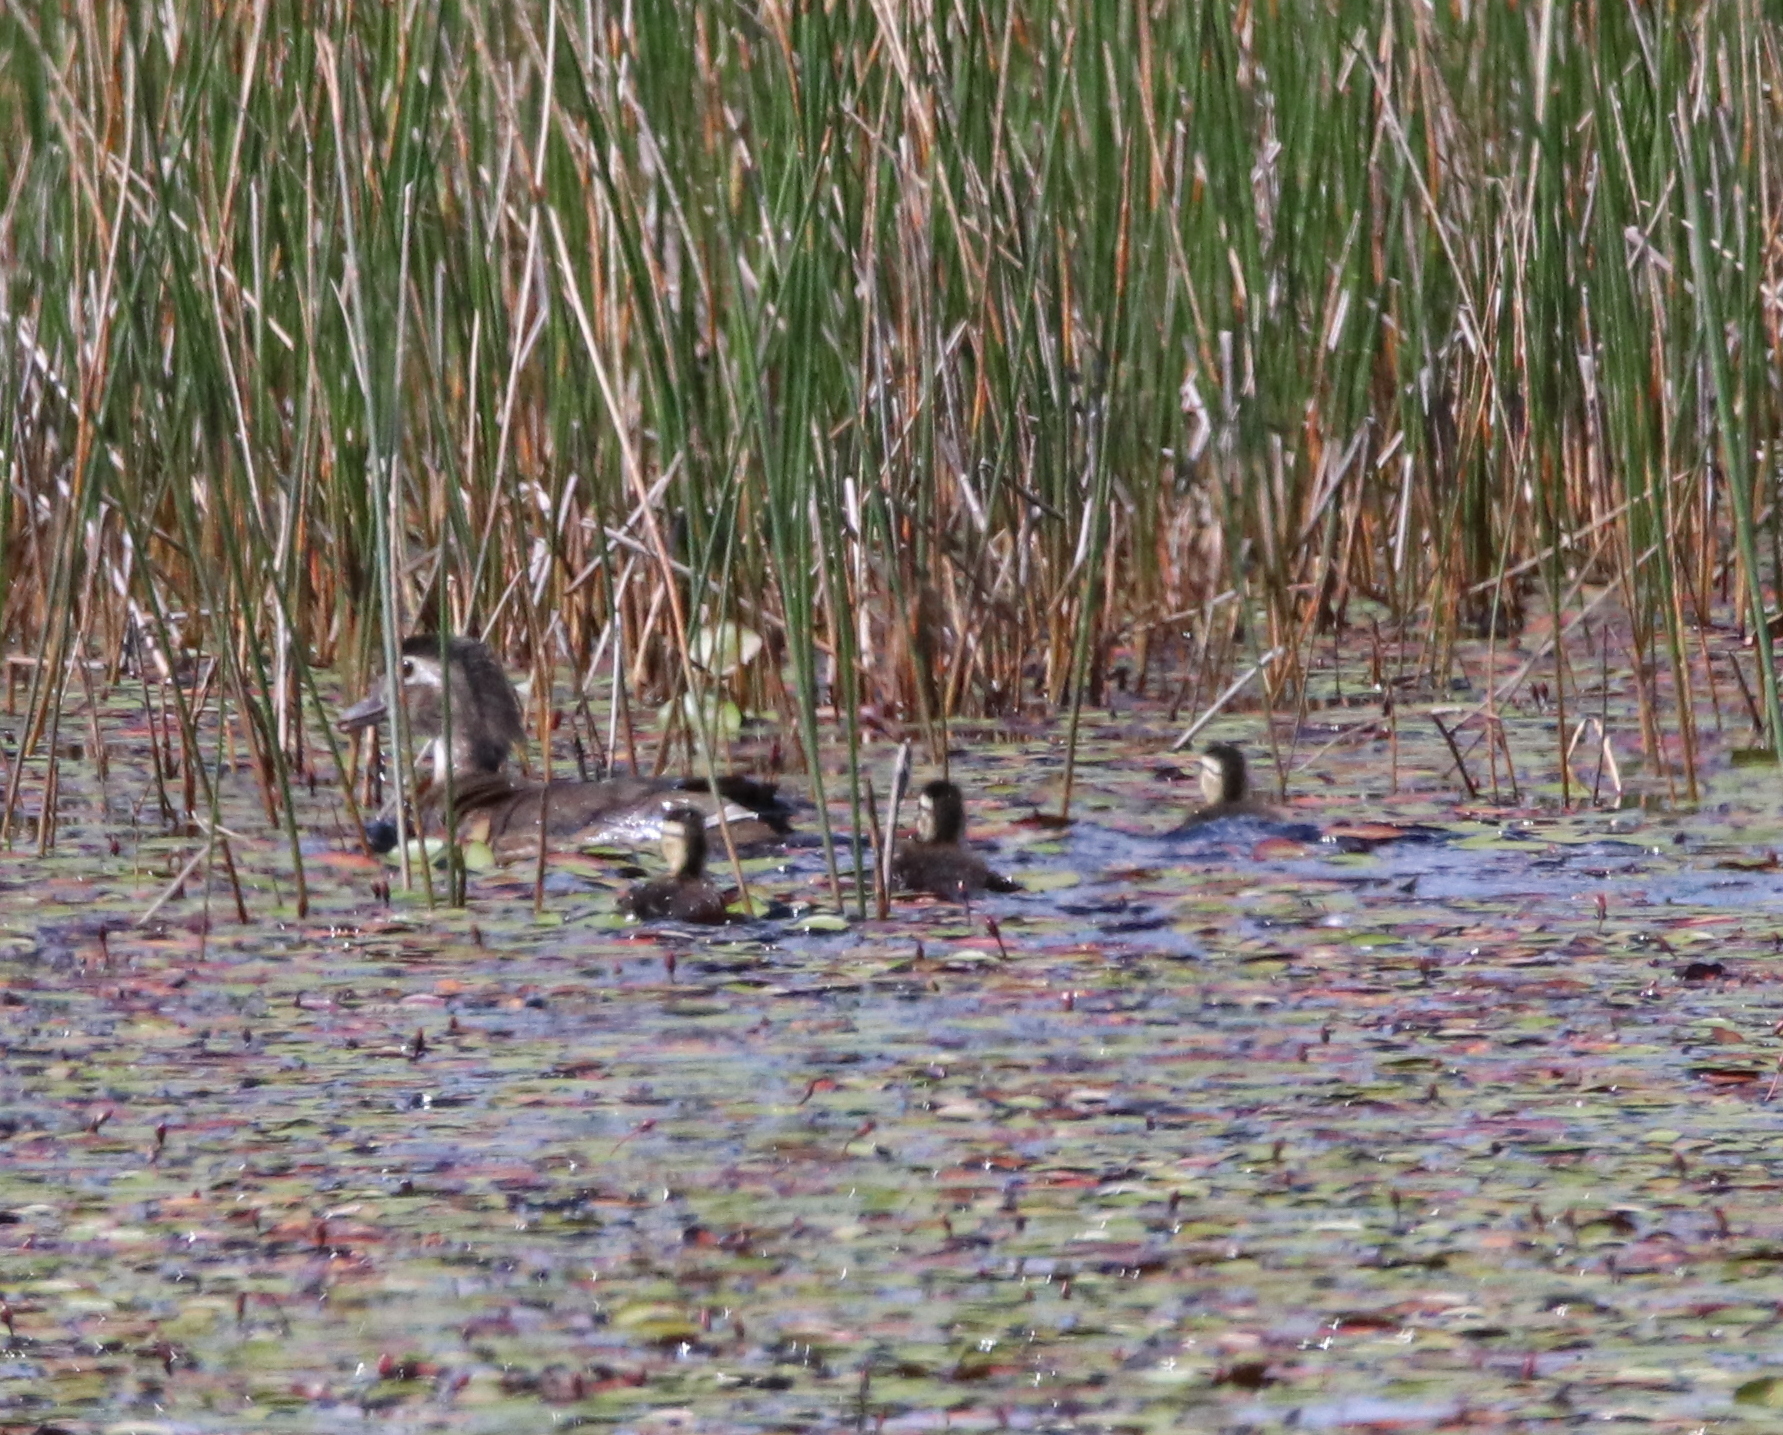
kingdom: Animalia
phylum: Chordata
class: Aves
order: Anseriformes
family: Anatidae
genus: Aix
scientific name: Aix sponsa
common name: Wood duck
